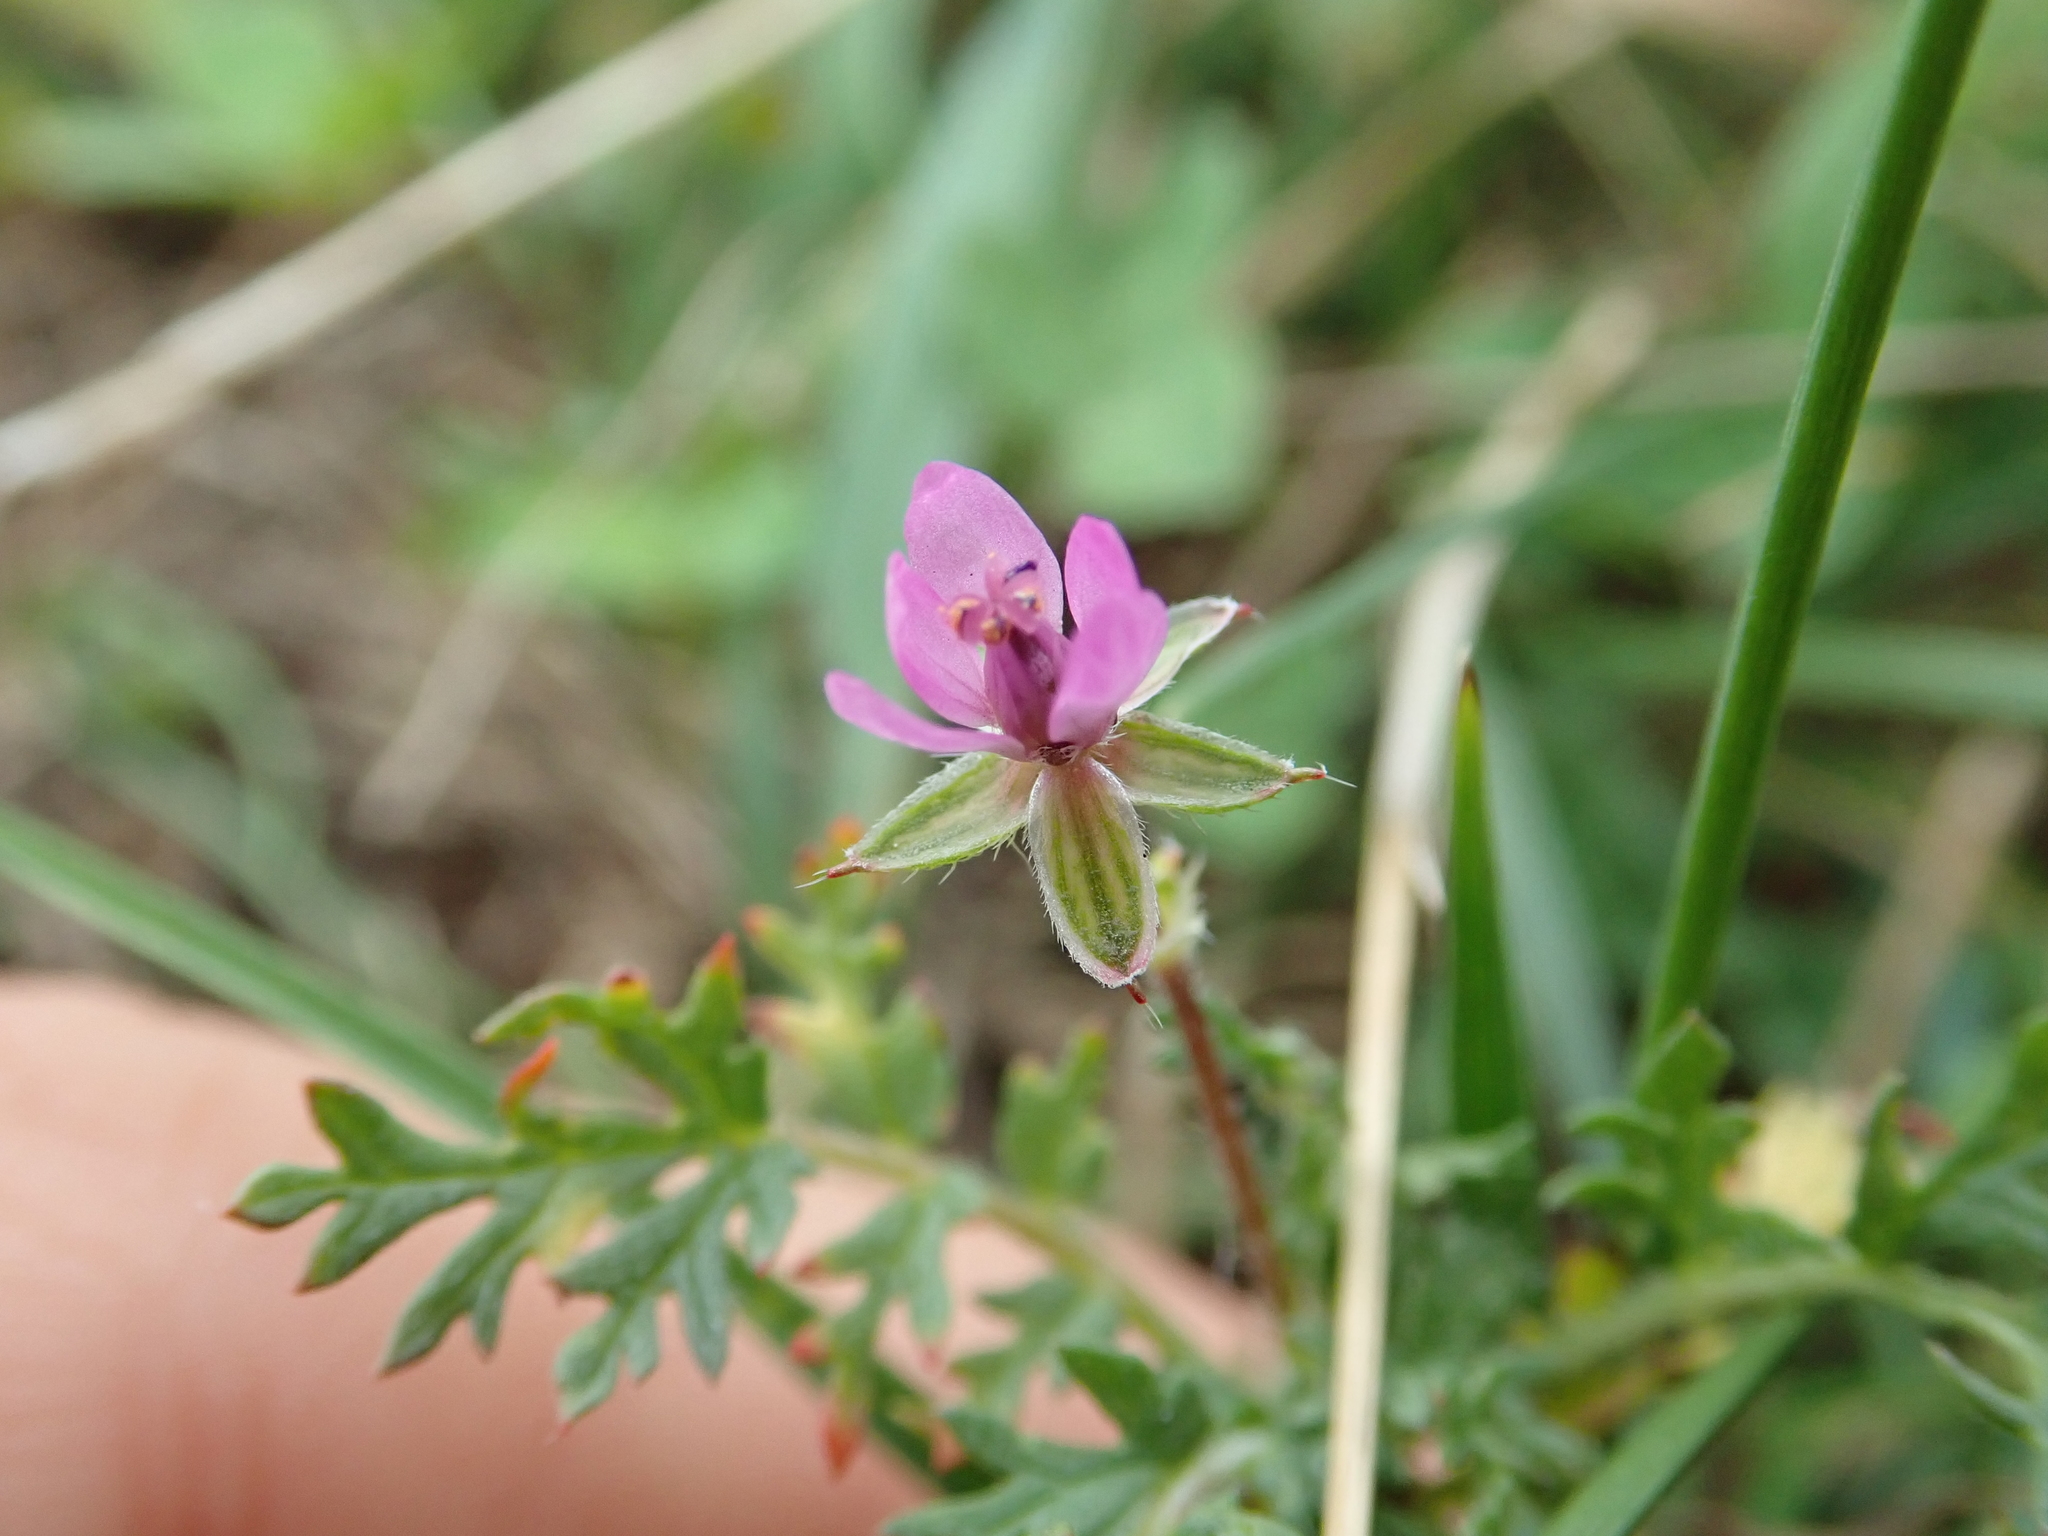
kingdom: Plantae
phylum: Tracheophyta
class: Magnoliopsida
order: Geraniales
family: Geraniaceae
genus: Erodium
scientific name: Erodium cicutarium
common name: Common stork's-bill
